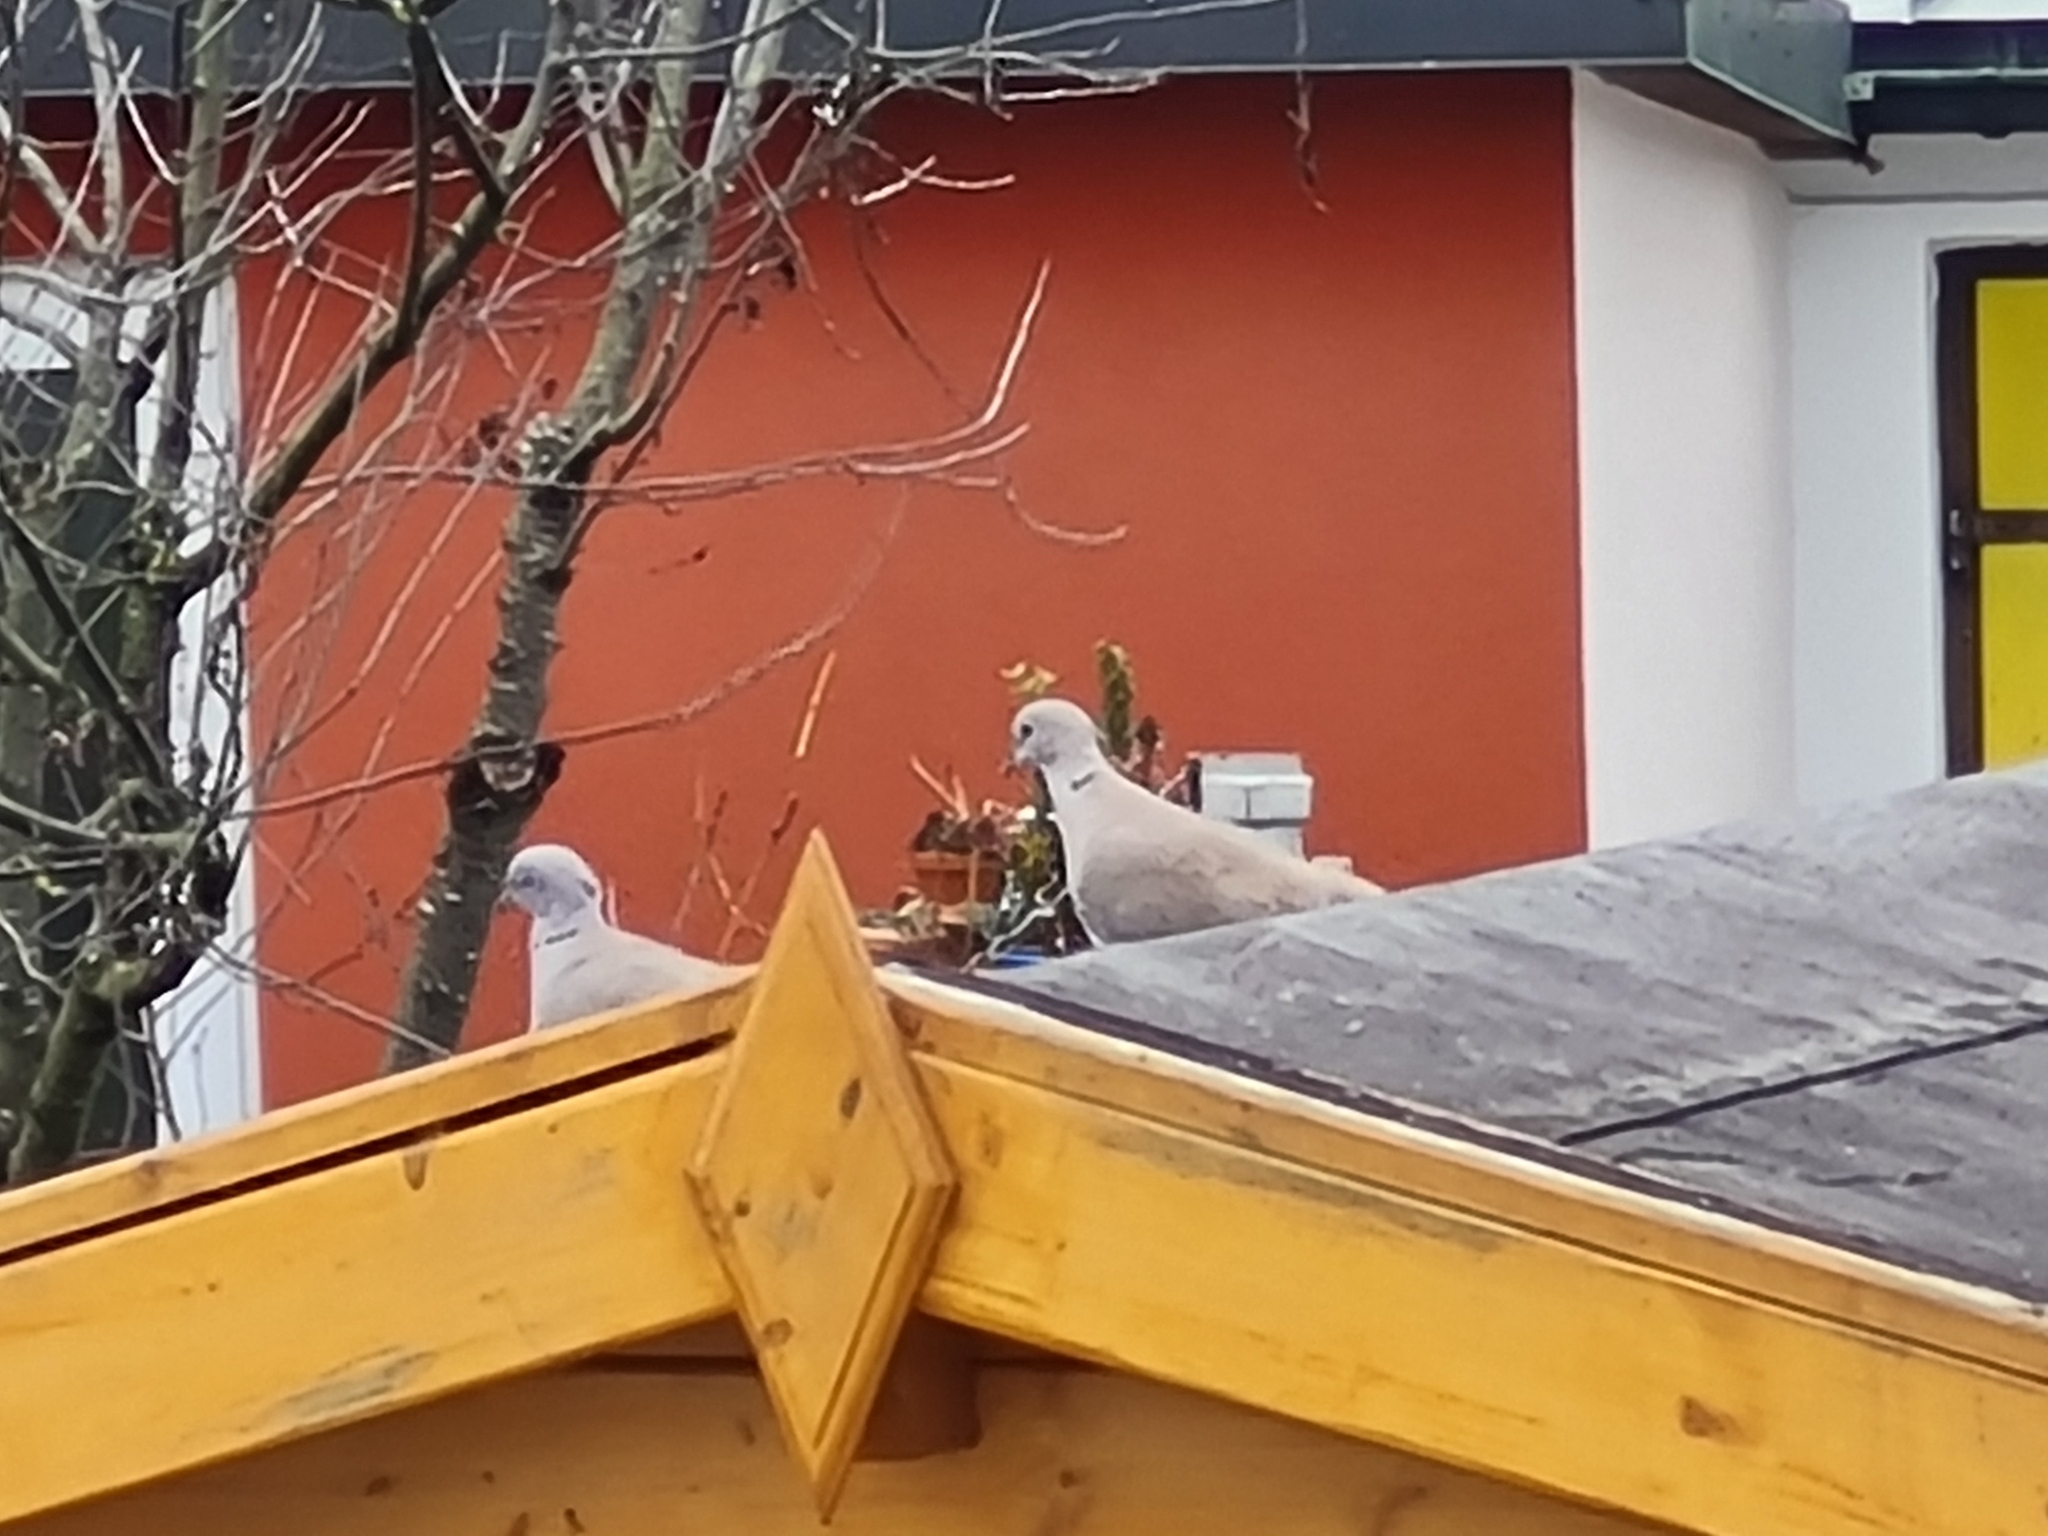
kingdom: Animalia
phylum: Chordata
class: Aves
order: Columbiformes
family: Columbidae
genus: Streptopelia
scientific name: Streptopelia decaocto
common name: Eurasian collared dove
